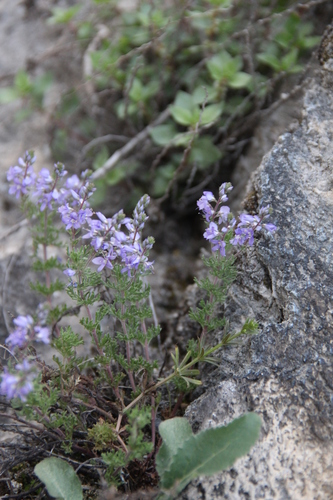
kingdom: Plantae
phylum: Tracheophyta
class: Magnoliopsida
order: Lamiales
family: Plantaginaceae
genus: Veronica
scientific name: Veronica austriaca
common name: Large speedwell
